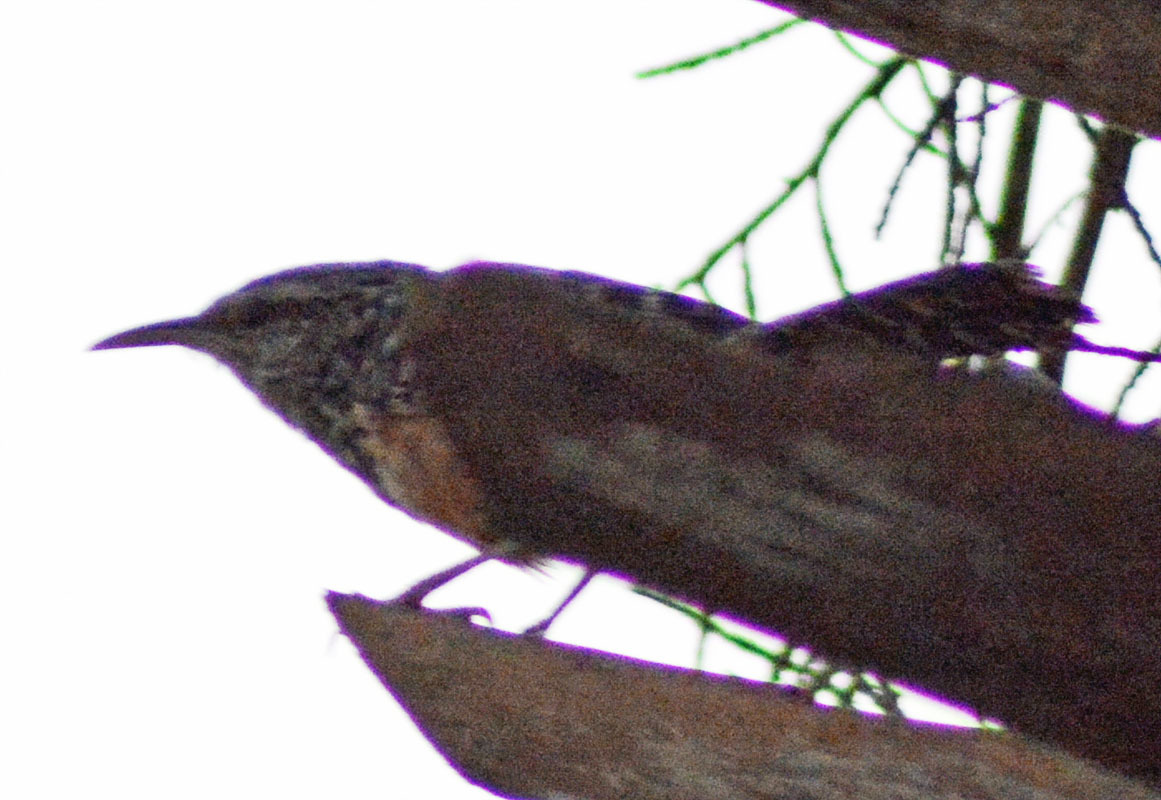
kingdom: Animalia
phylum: Chordata
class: Aves
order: Passeriformes
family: Troglodytidae
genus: Campylorhynchus
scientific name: Campylorhynchus zonatus
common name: Band-backed wren
